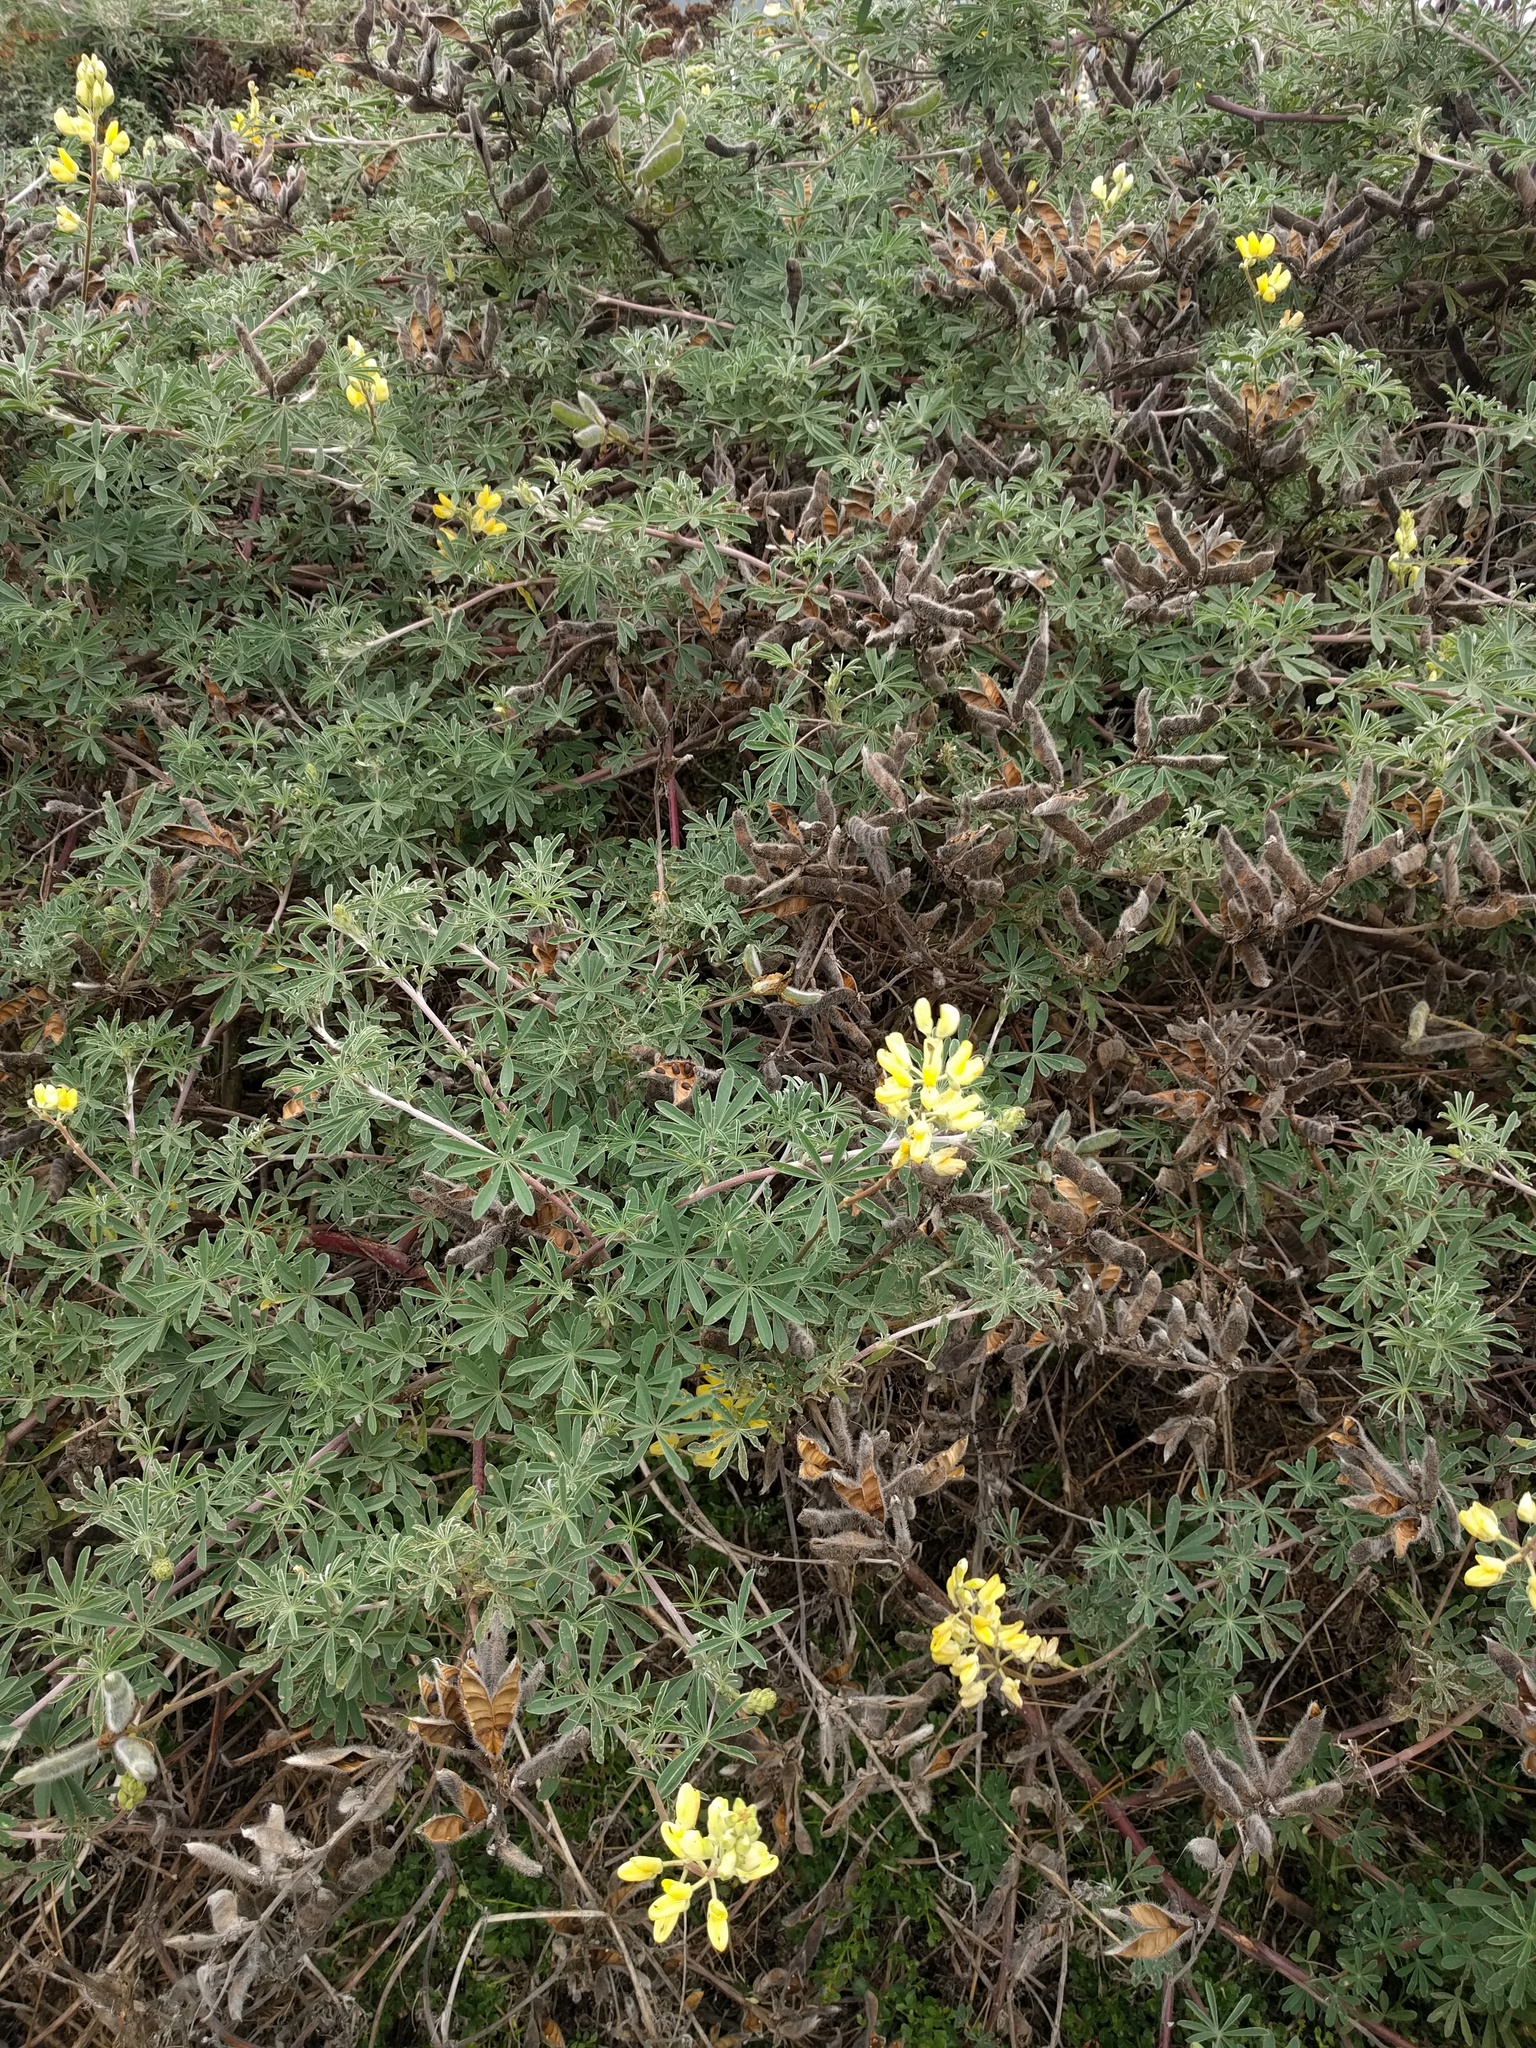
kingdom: Plantae
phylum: Tracheophyta
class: Magnoliopsida
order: Fabales
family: Fabaceae
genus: Lupinus
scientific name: Lupinus arboreus
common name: Yellow bush lupine
